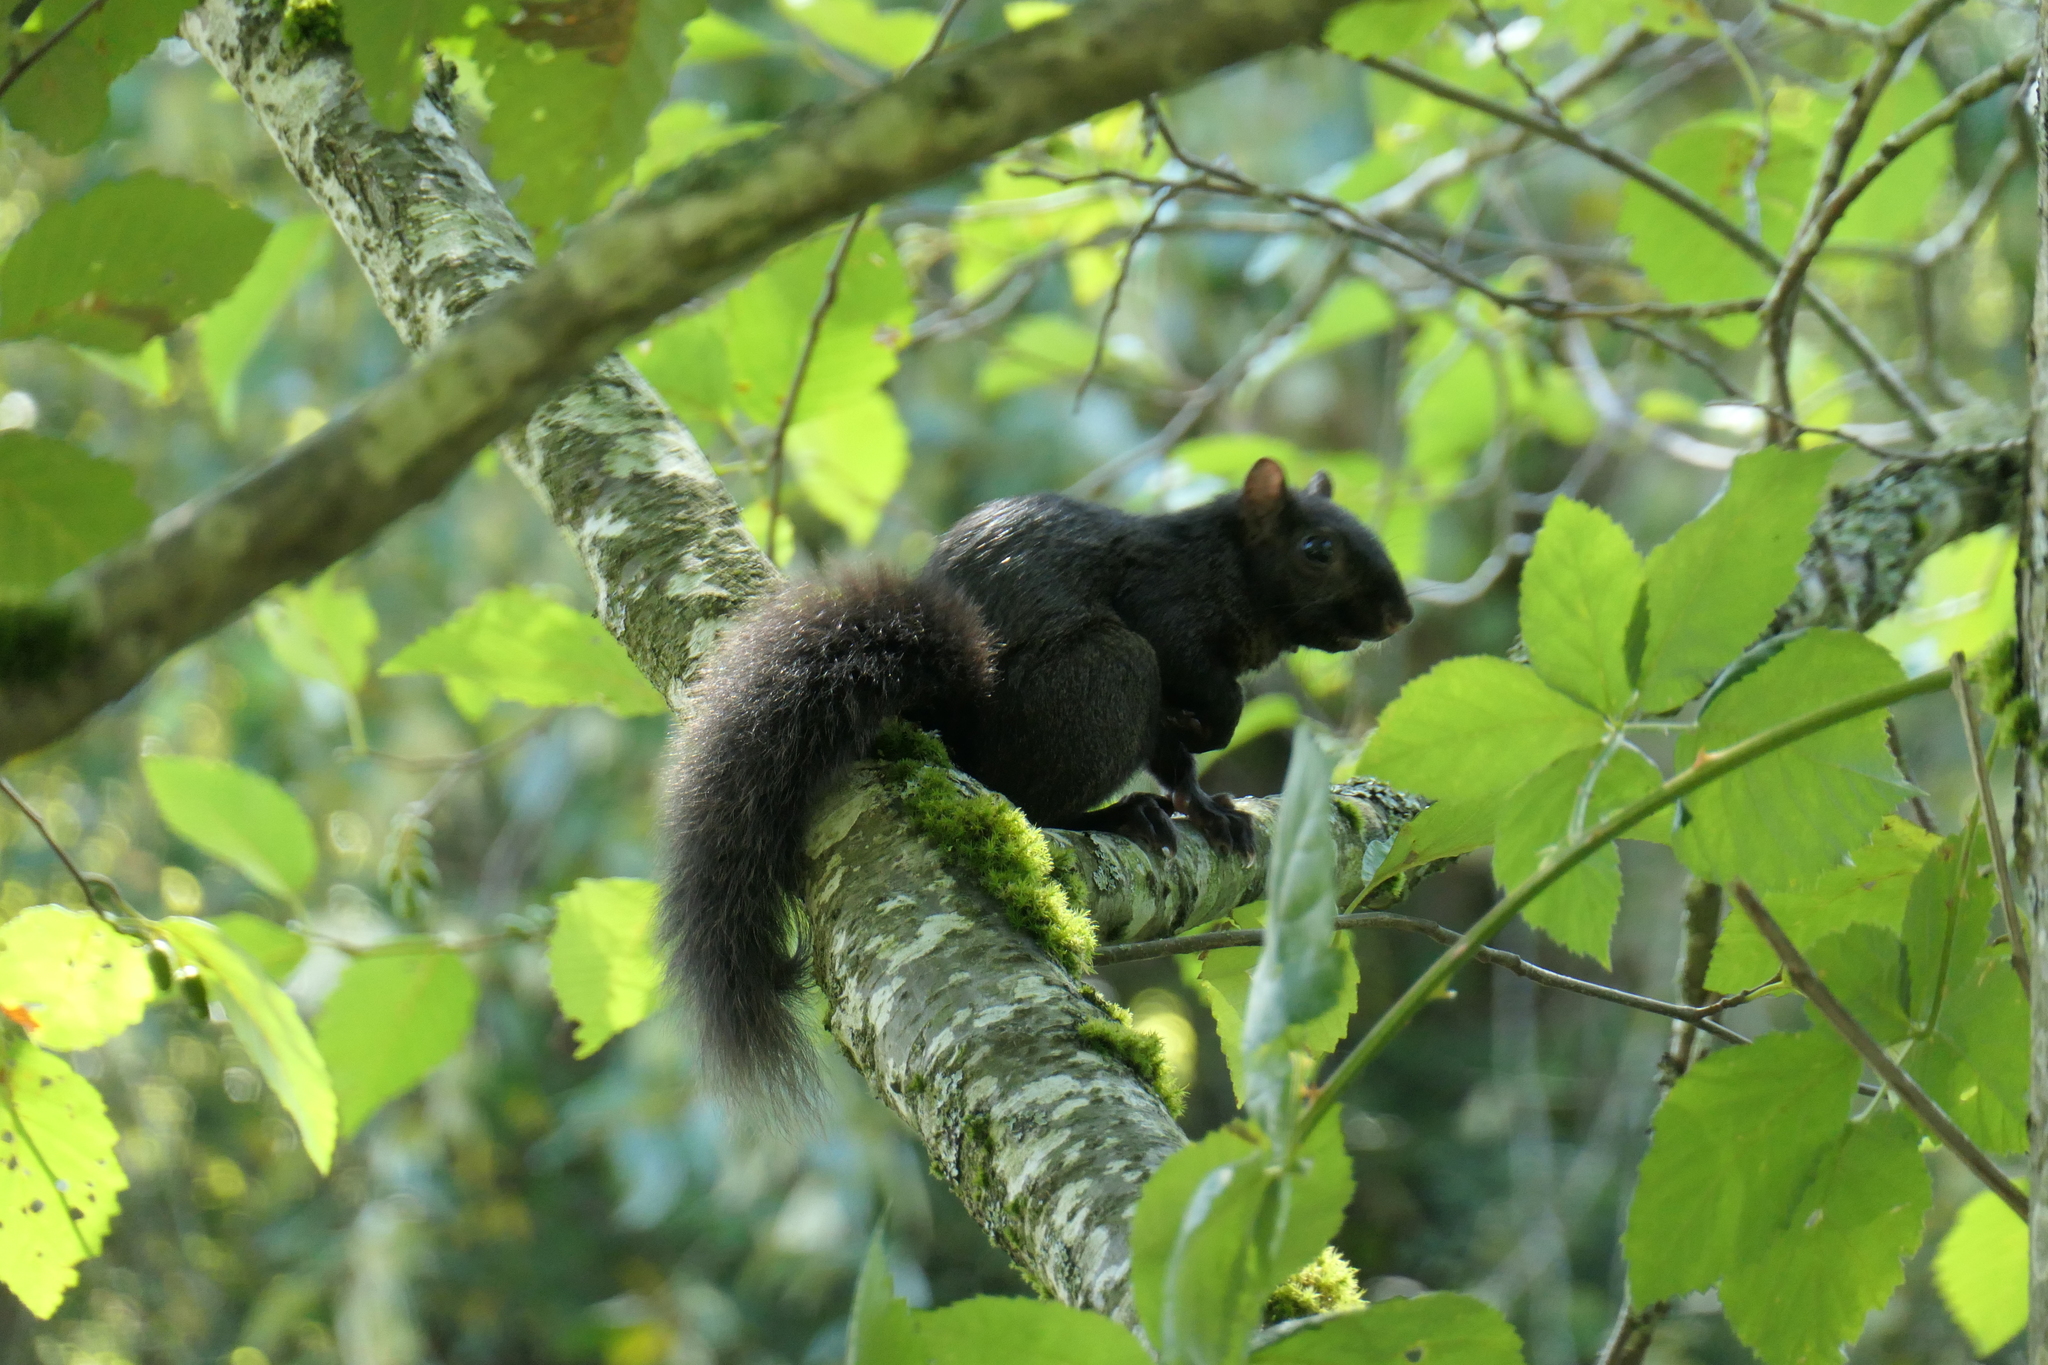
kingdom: Animalia
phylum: Chordata
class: Mammalia
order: Rodentia
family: Sciuridae
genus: Sciurus
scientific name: Sciurus carolinensis
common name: Eastern gray squirrel
